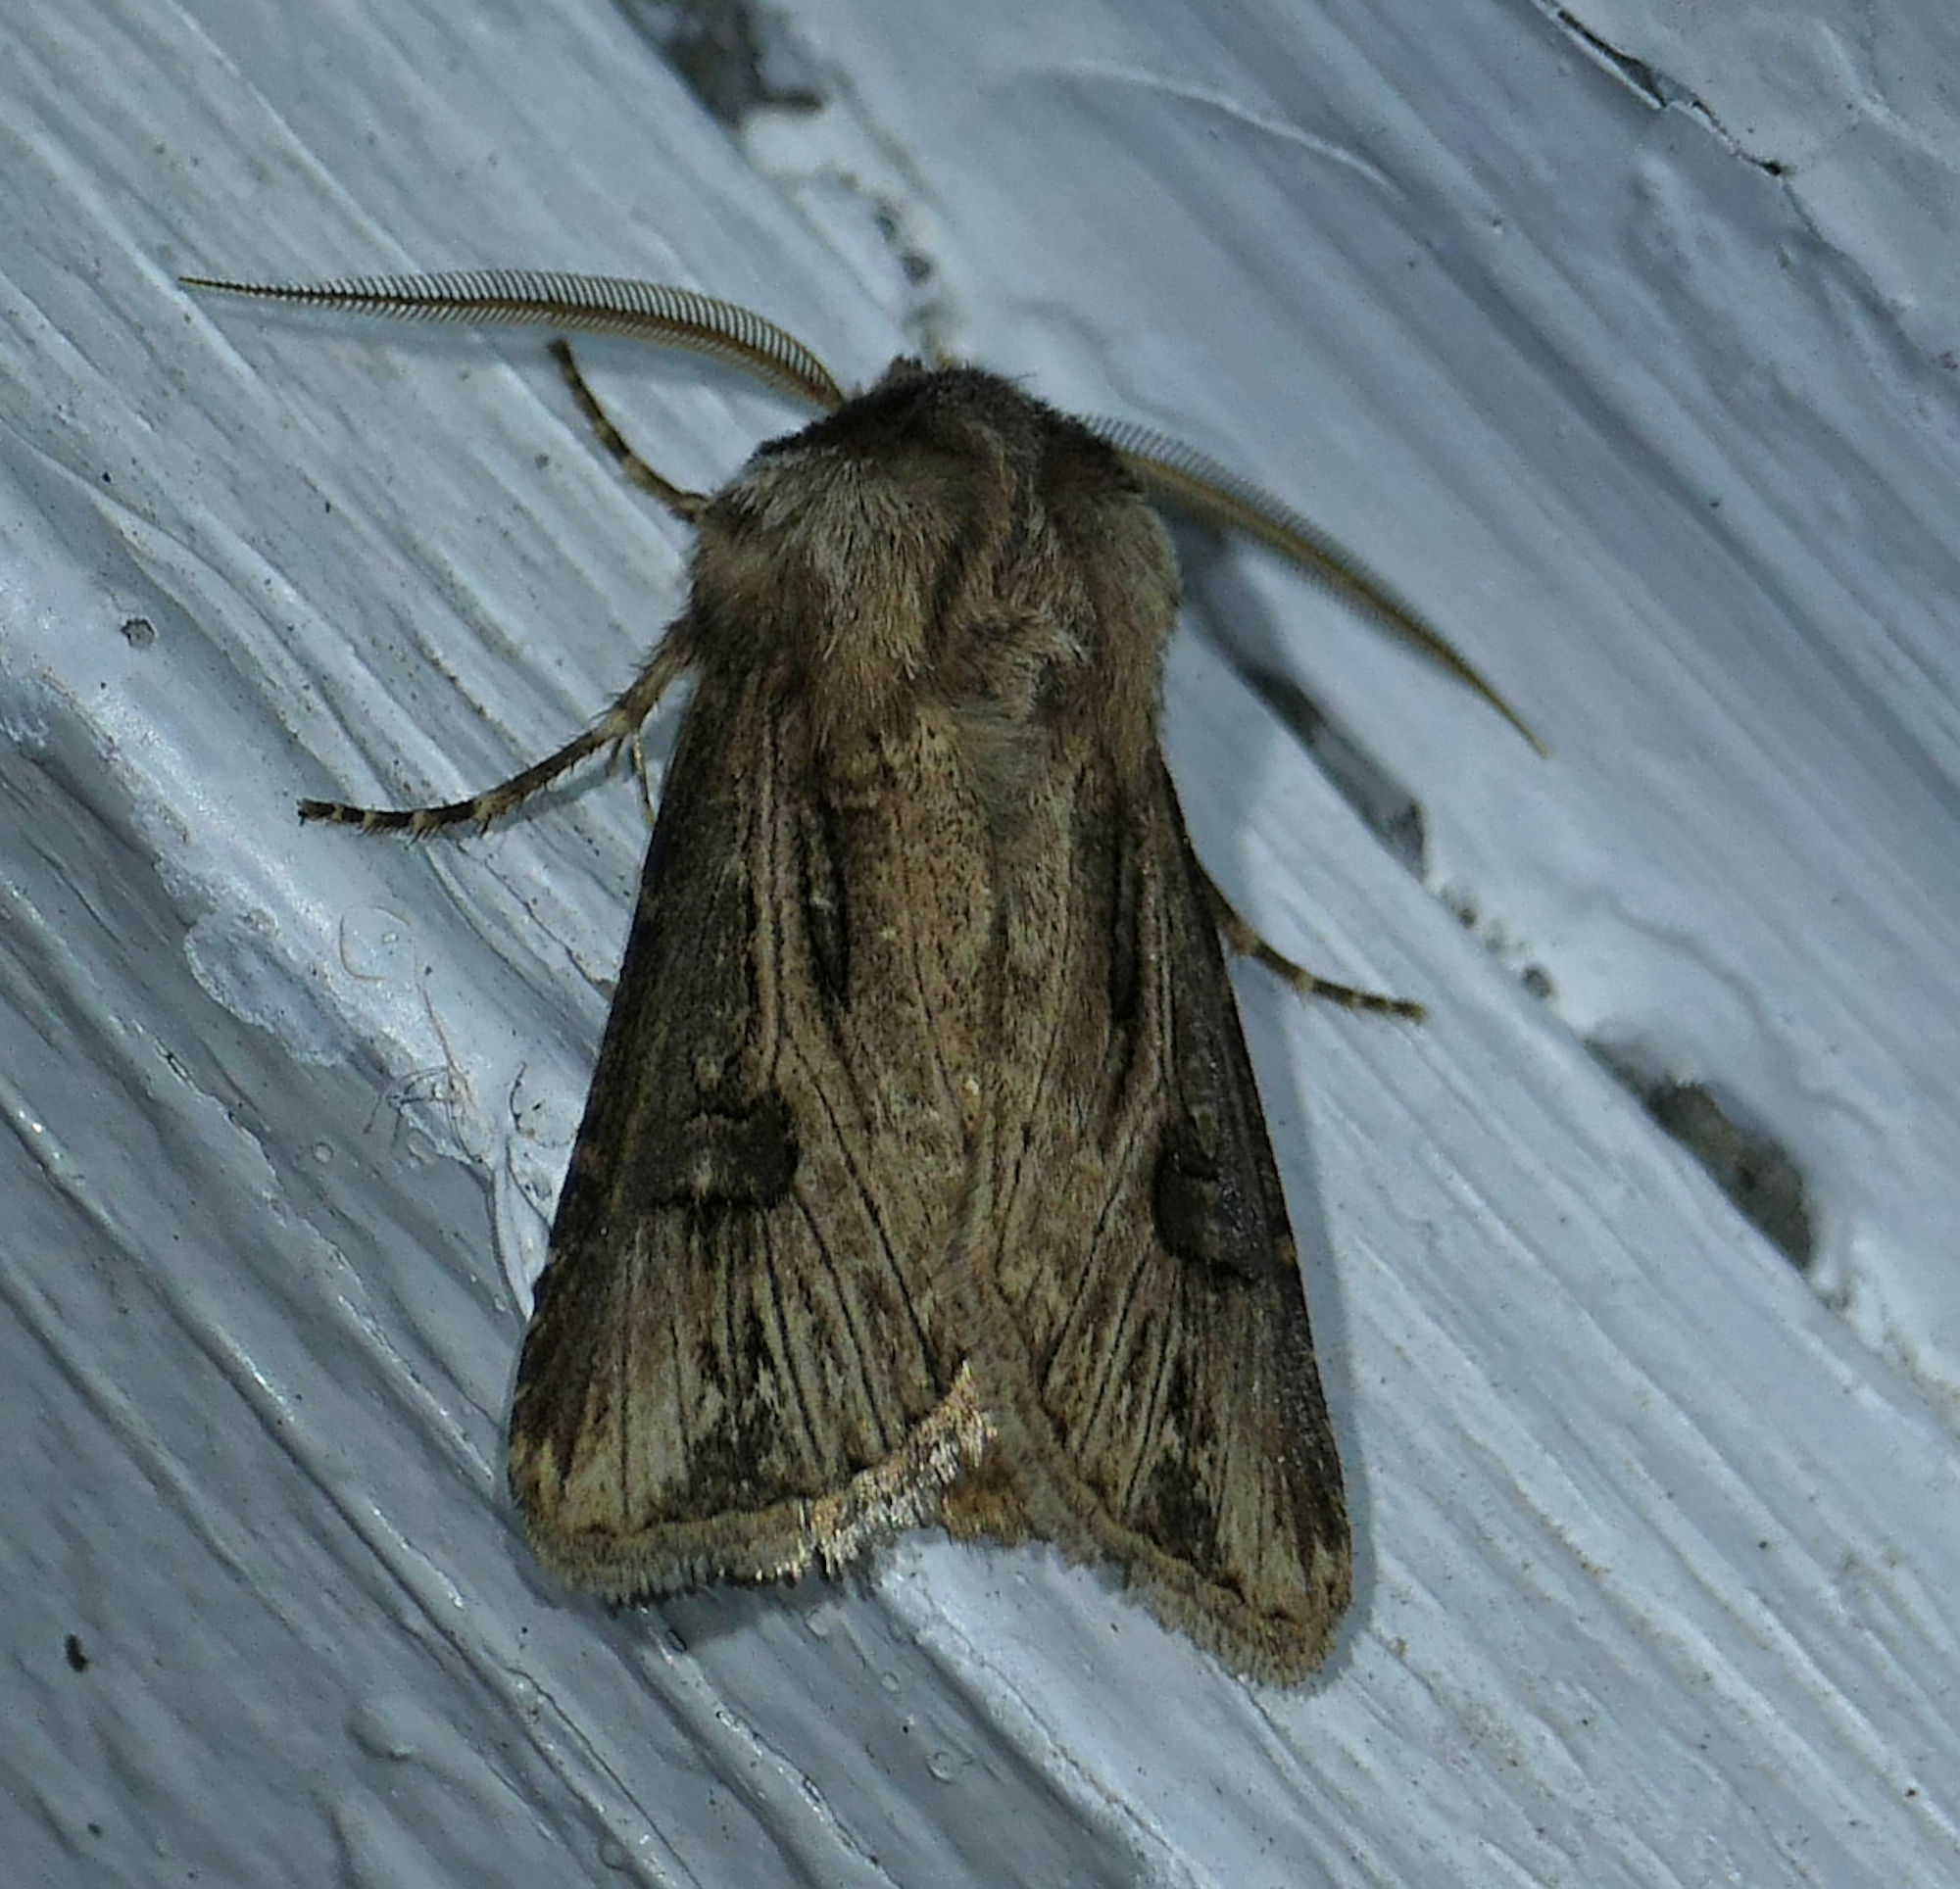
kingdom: Animalia
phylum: Arthropoda
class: Insecta
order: Lepidoptera
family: Noctuidae
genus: Agrotis
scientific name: Agrotis venerabilis
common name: Venerable dart
